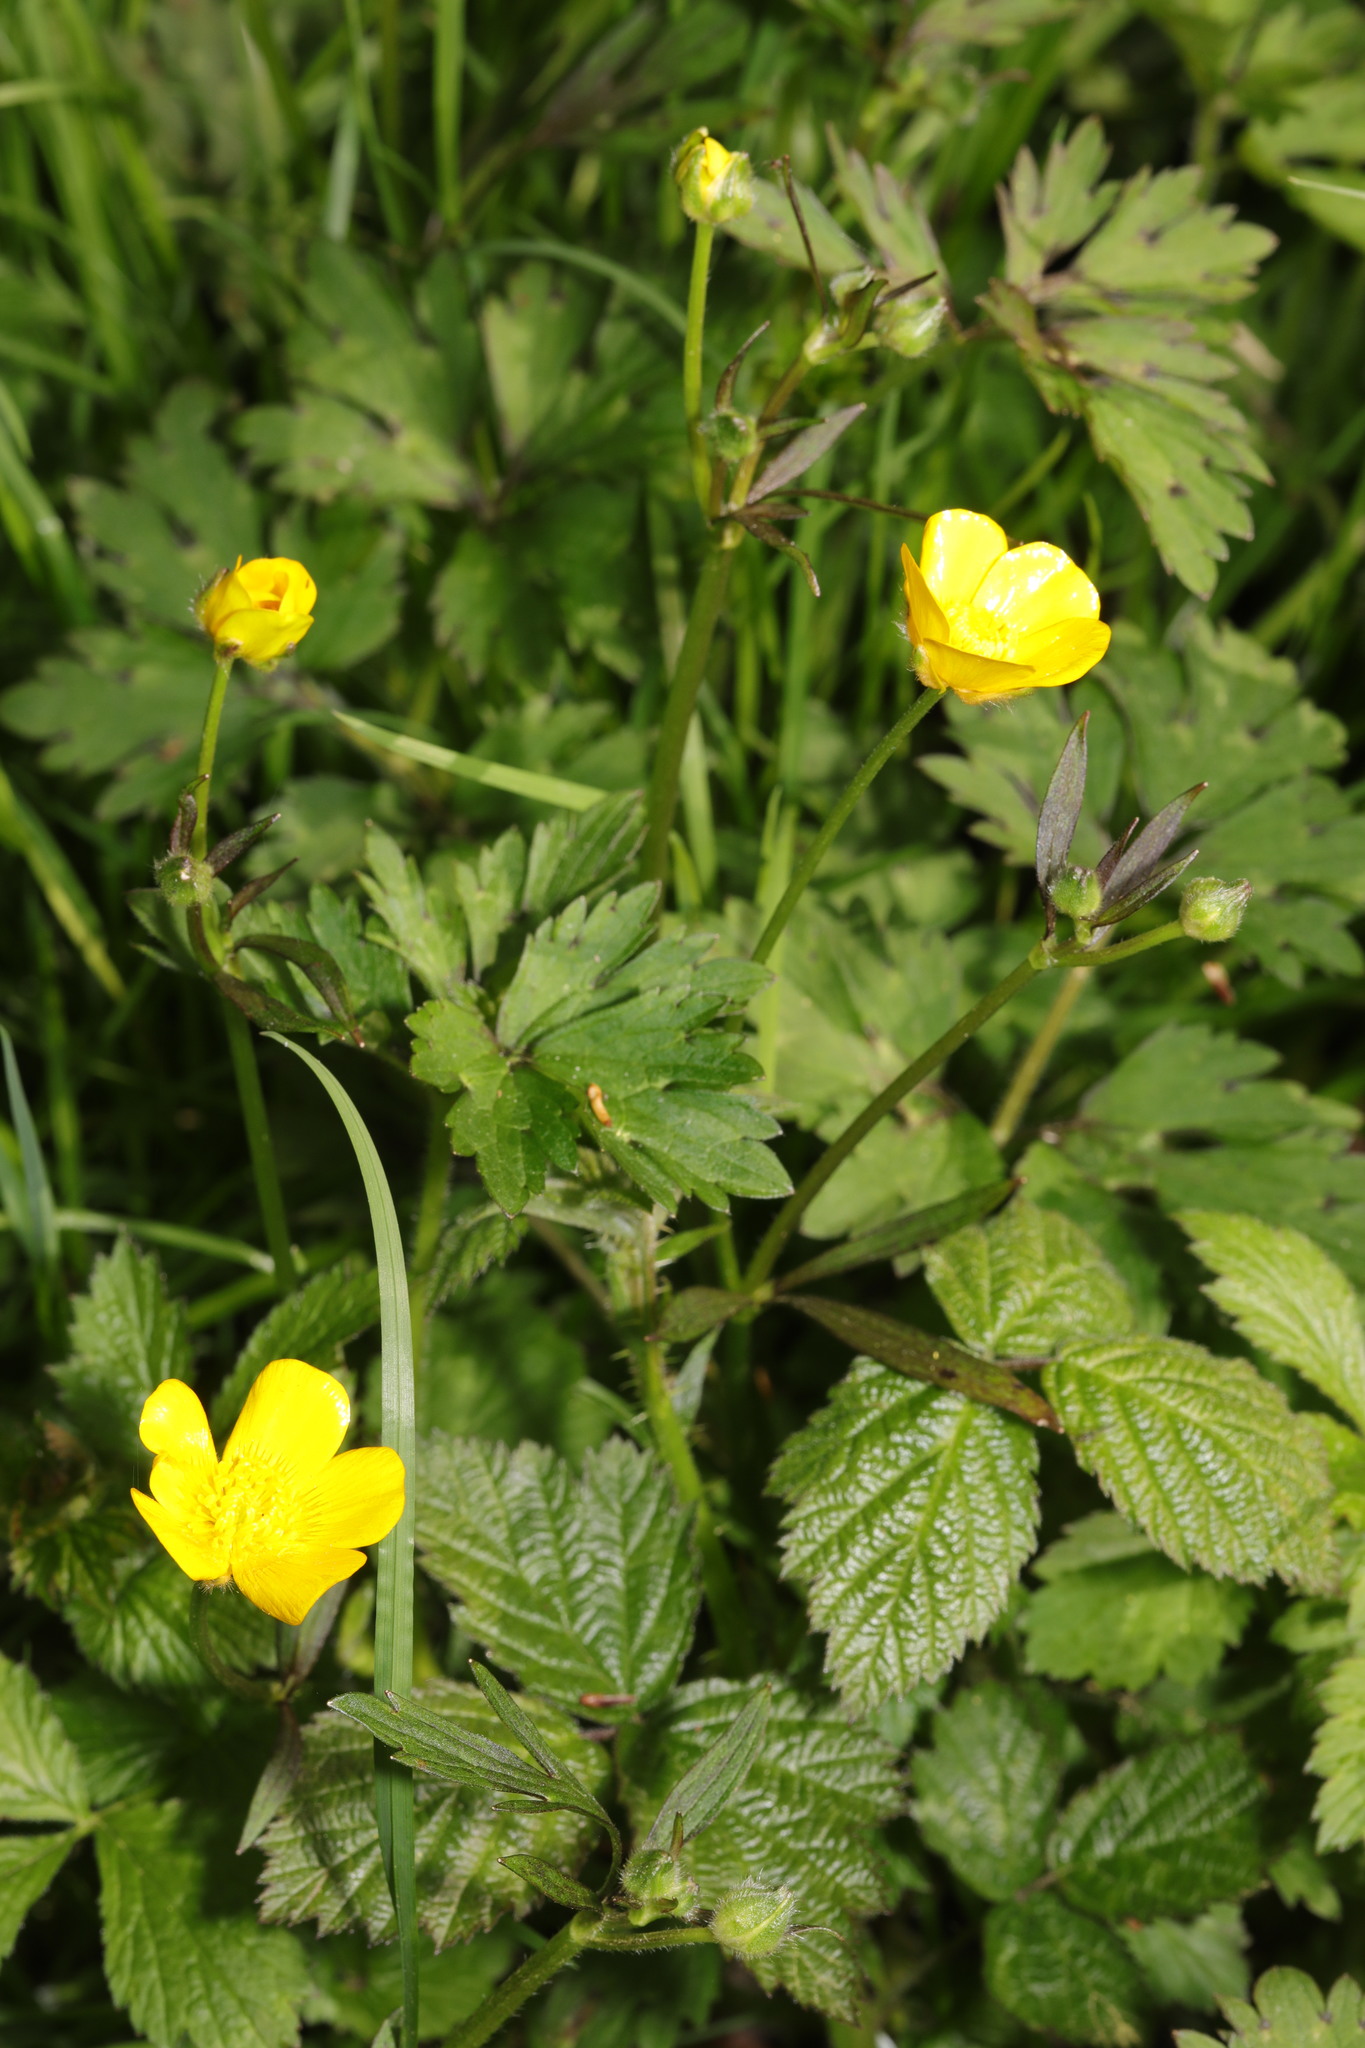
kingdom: Plantae
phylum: Tracheophyta
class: Magnoliopsida
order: Ranunculales
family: Ranunculaceae
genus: Ranunculus
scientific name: Ranunculus repens
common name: Creeping buttercup
